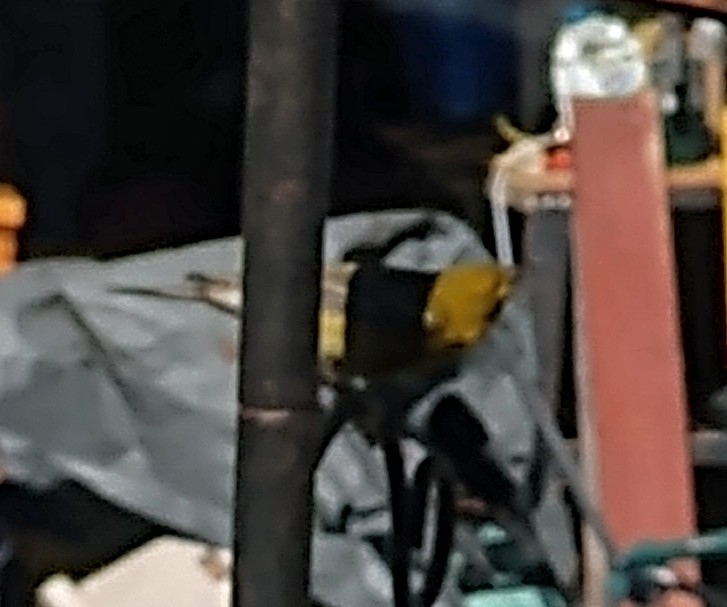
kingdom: Animalia
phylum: Chordata
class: Aves
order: Passeriformes
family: Parulidae
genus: Setophaga
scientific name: Setophaga pinus
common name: Pine warbler
